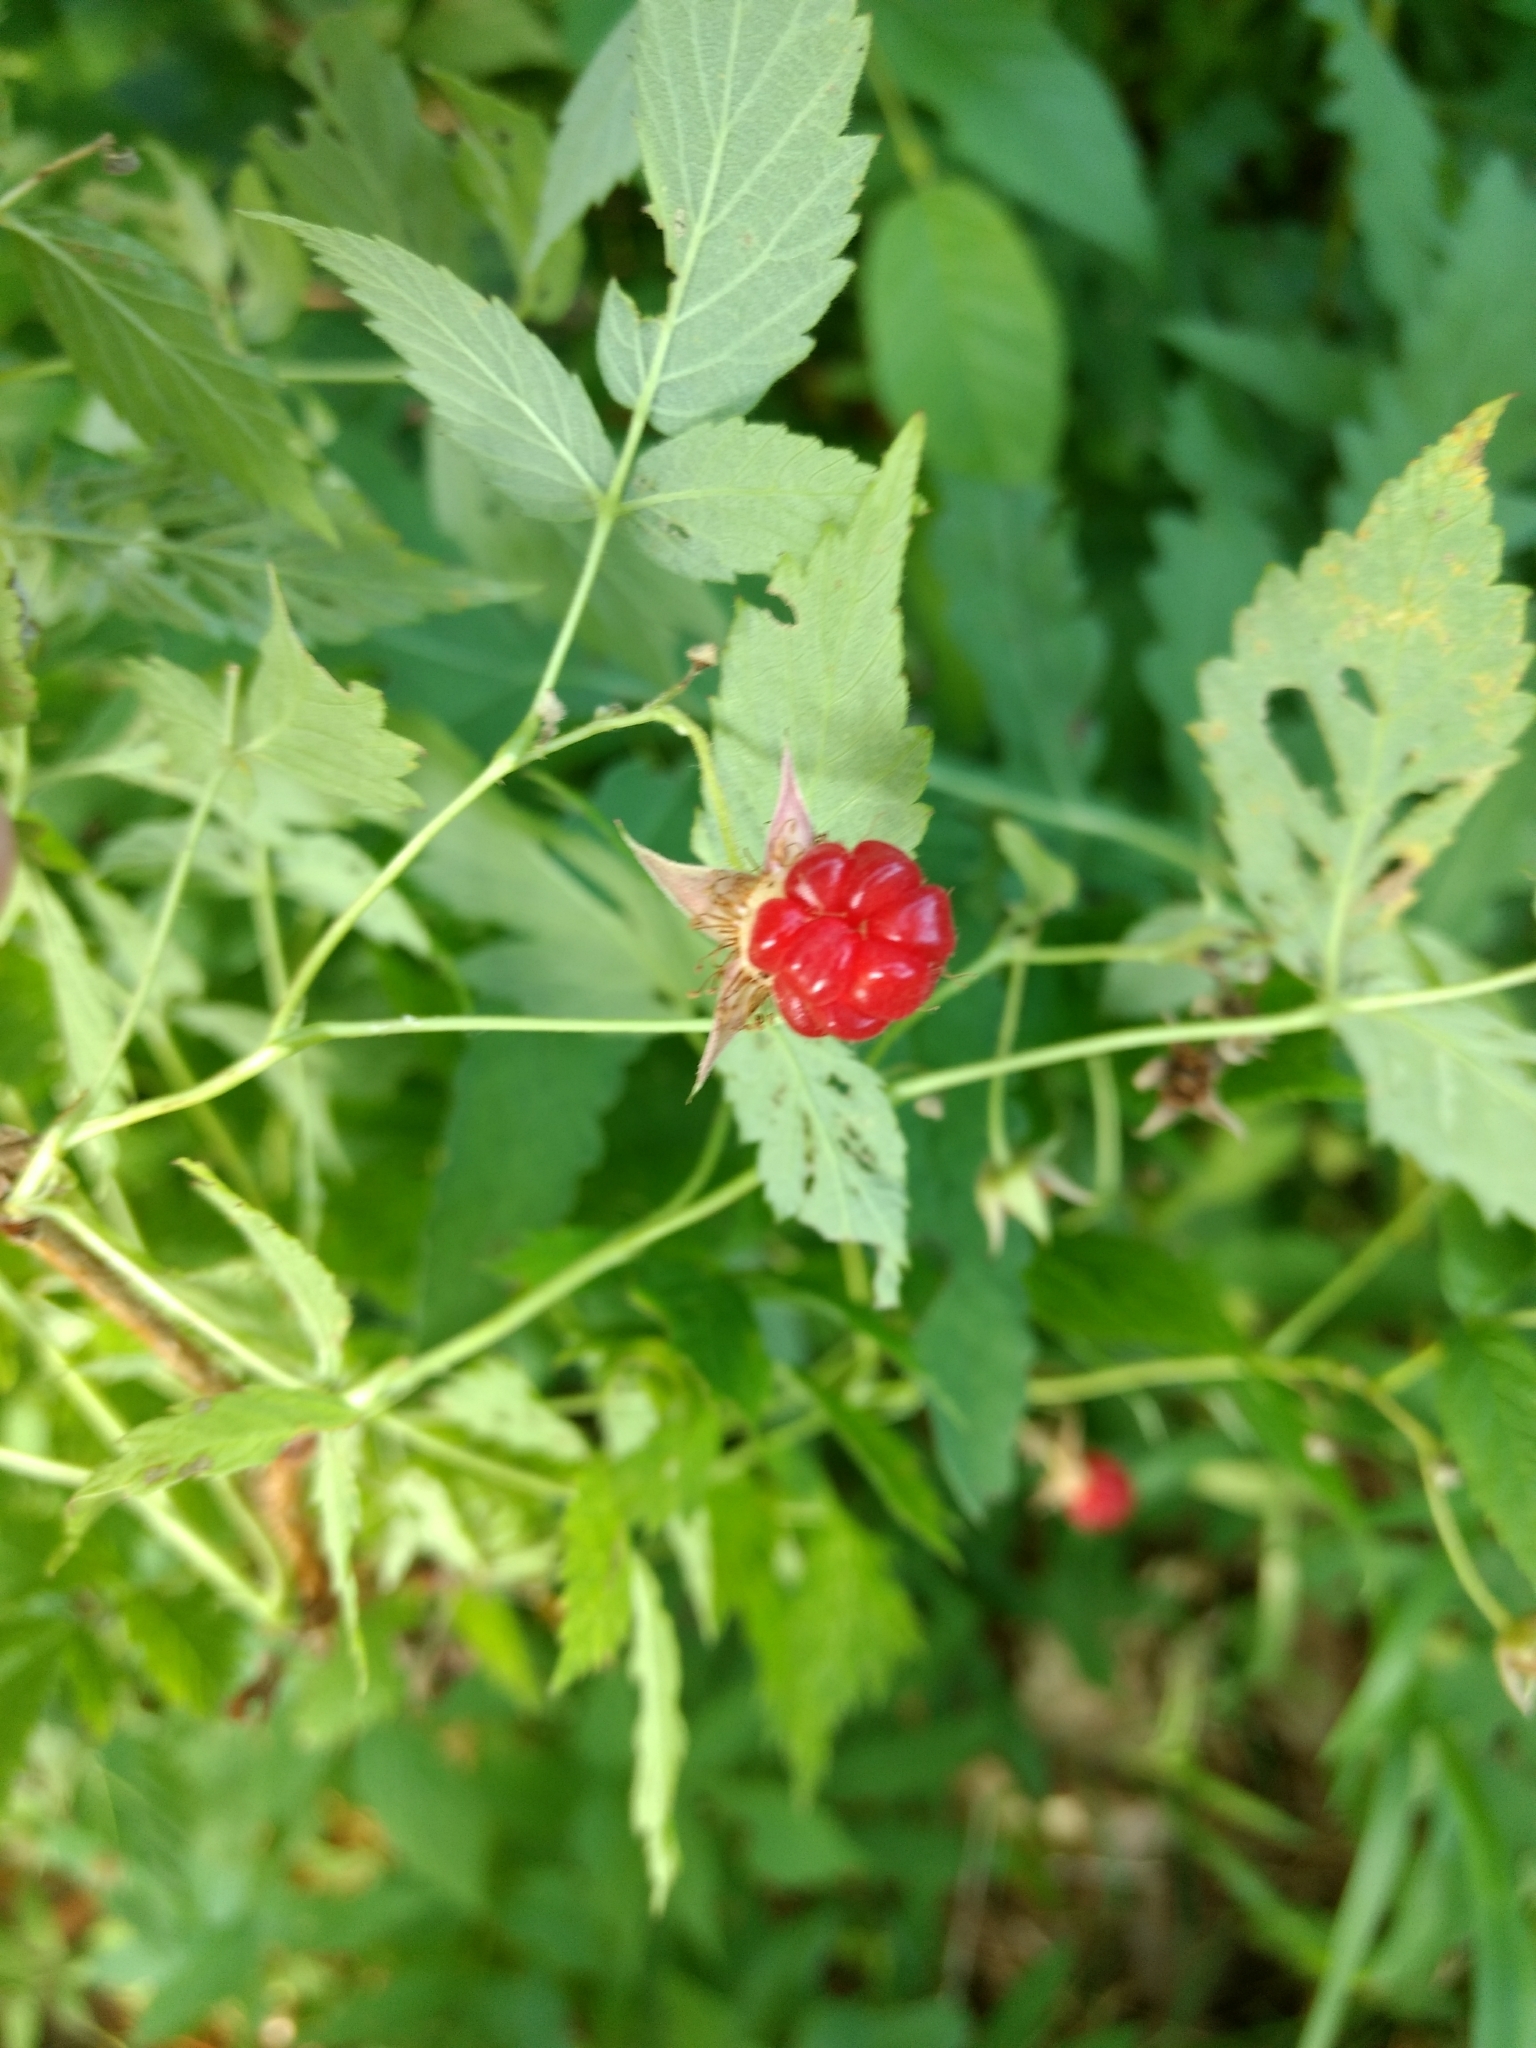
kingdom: Plantae
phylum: Tracheophyta
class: Magnoliopsida
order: Rosales
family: Rosaceae
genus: Rubus
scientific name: Rubus flagellaris
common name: American dewberry
